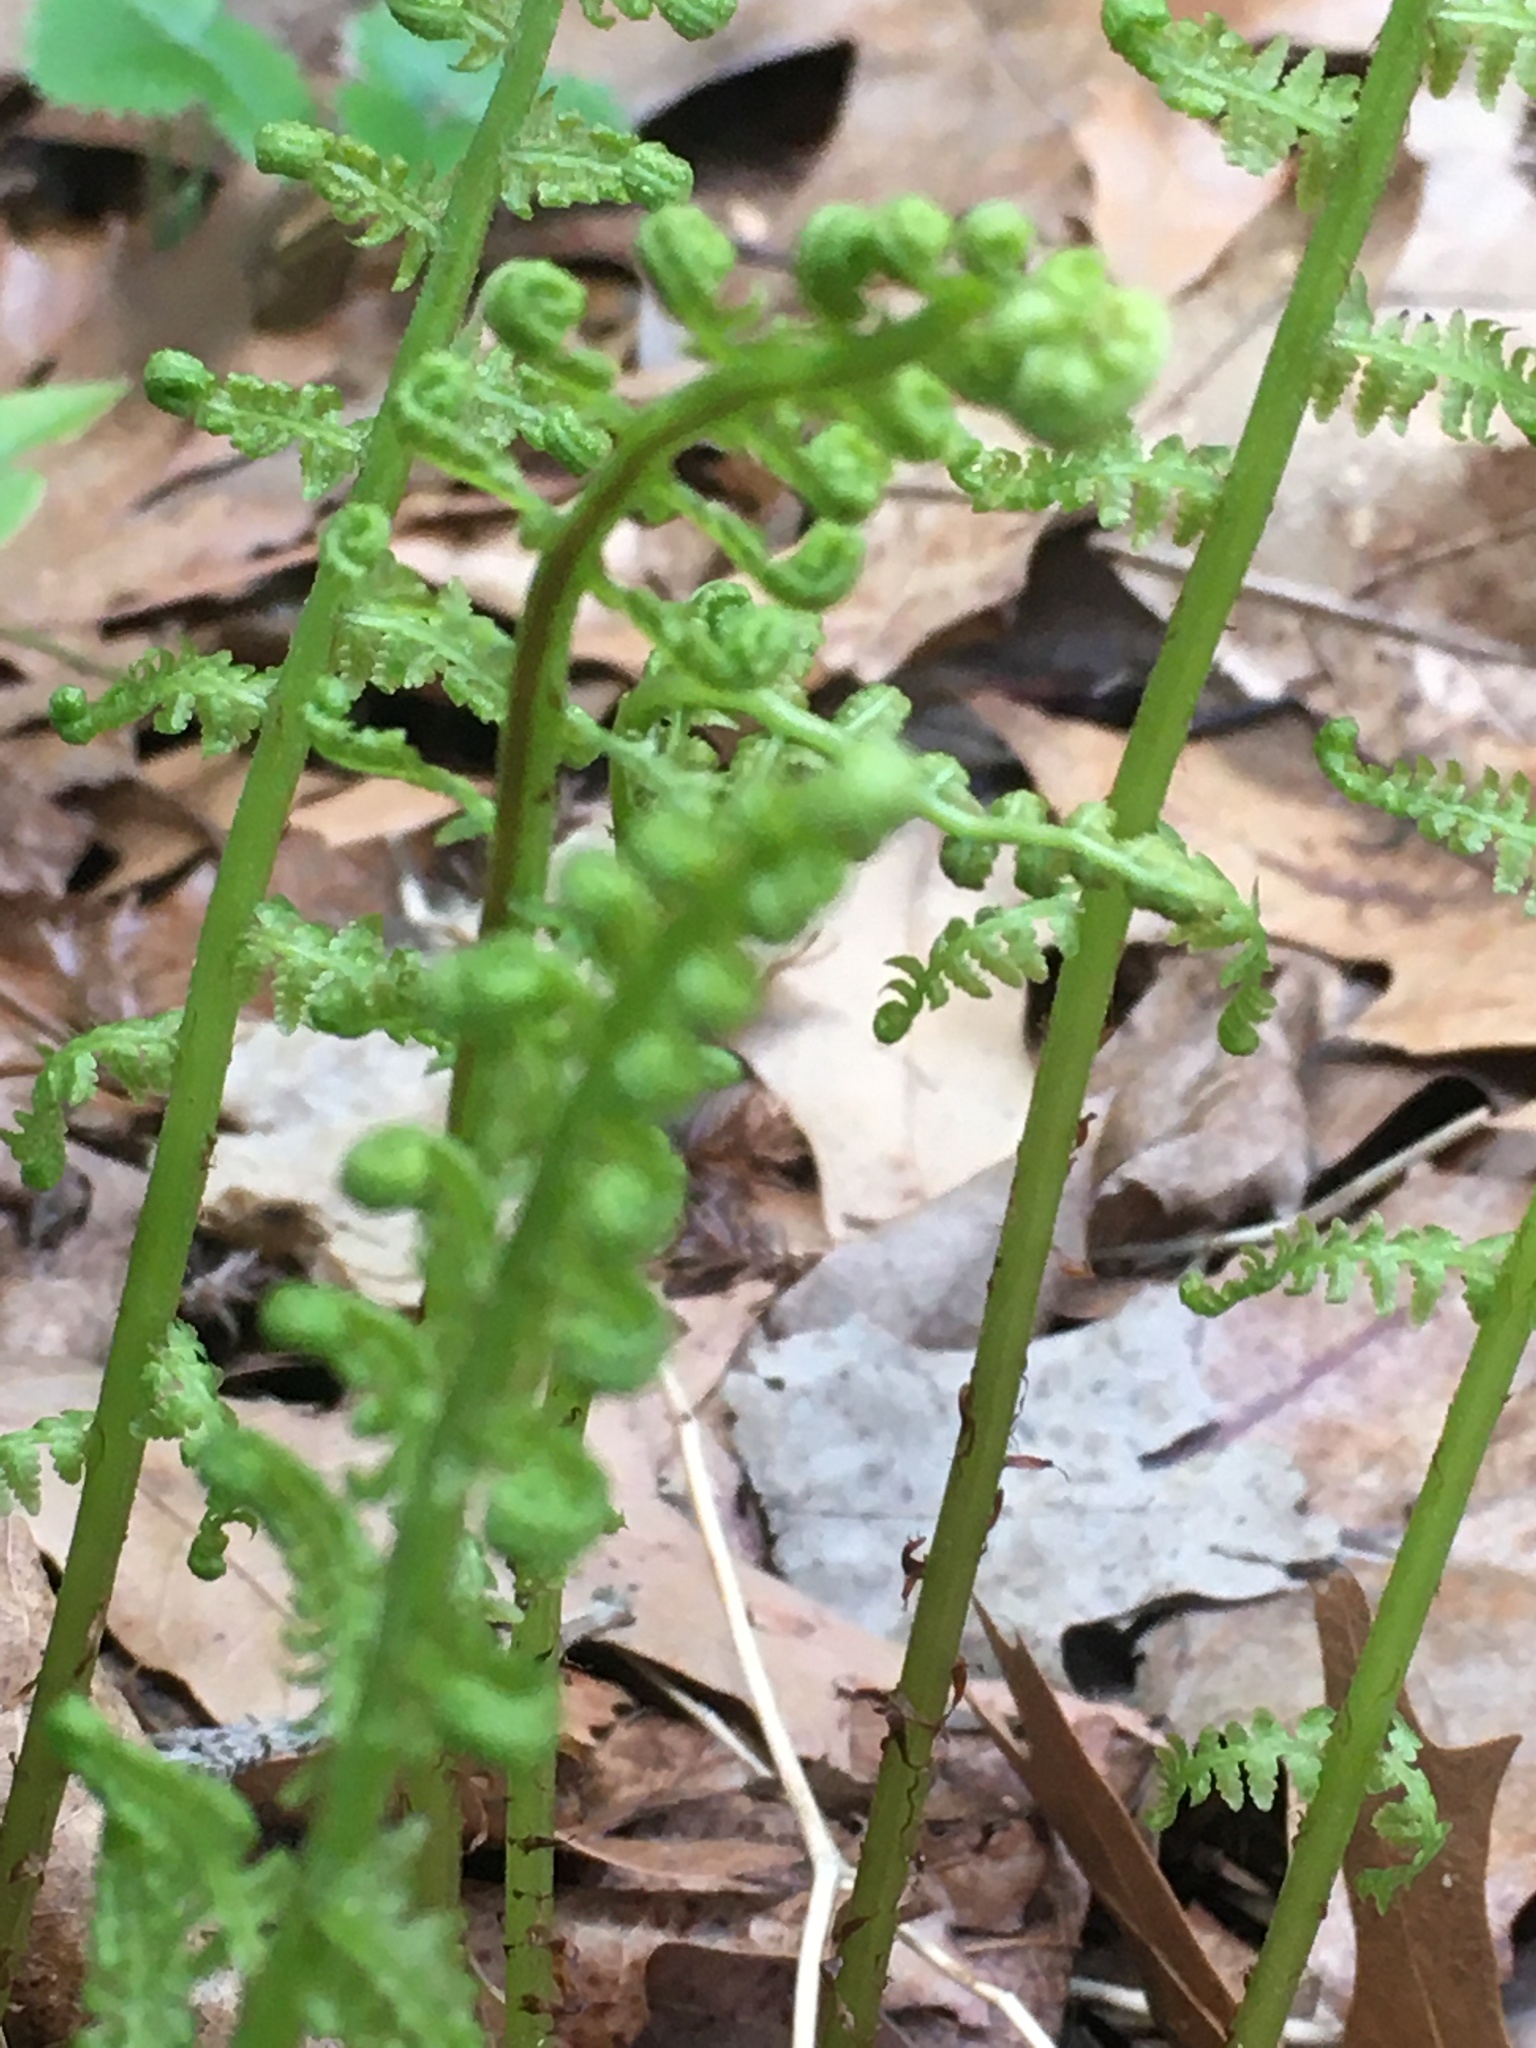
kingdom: Plantae
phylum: Tracheophyta
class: Polypodiopsida
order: Polypodiales
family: Athyriaceae
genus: Athyrium
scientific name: Athyrium angustum
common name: Northern lady fern
